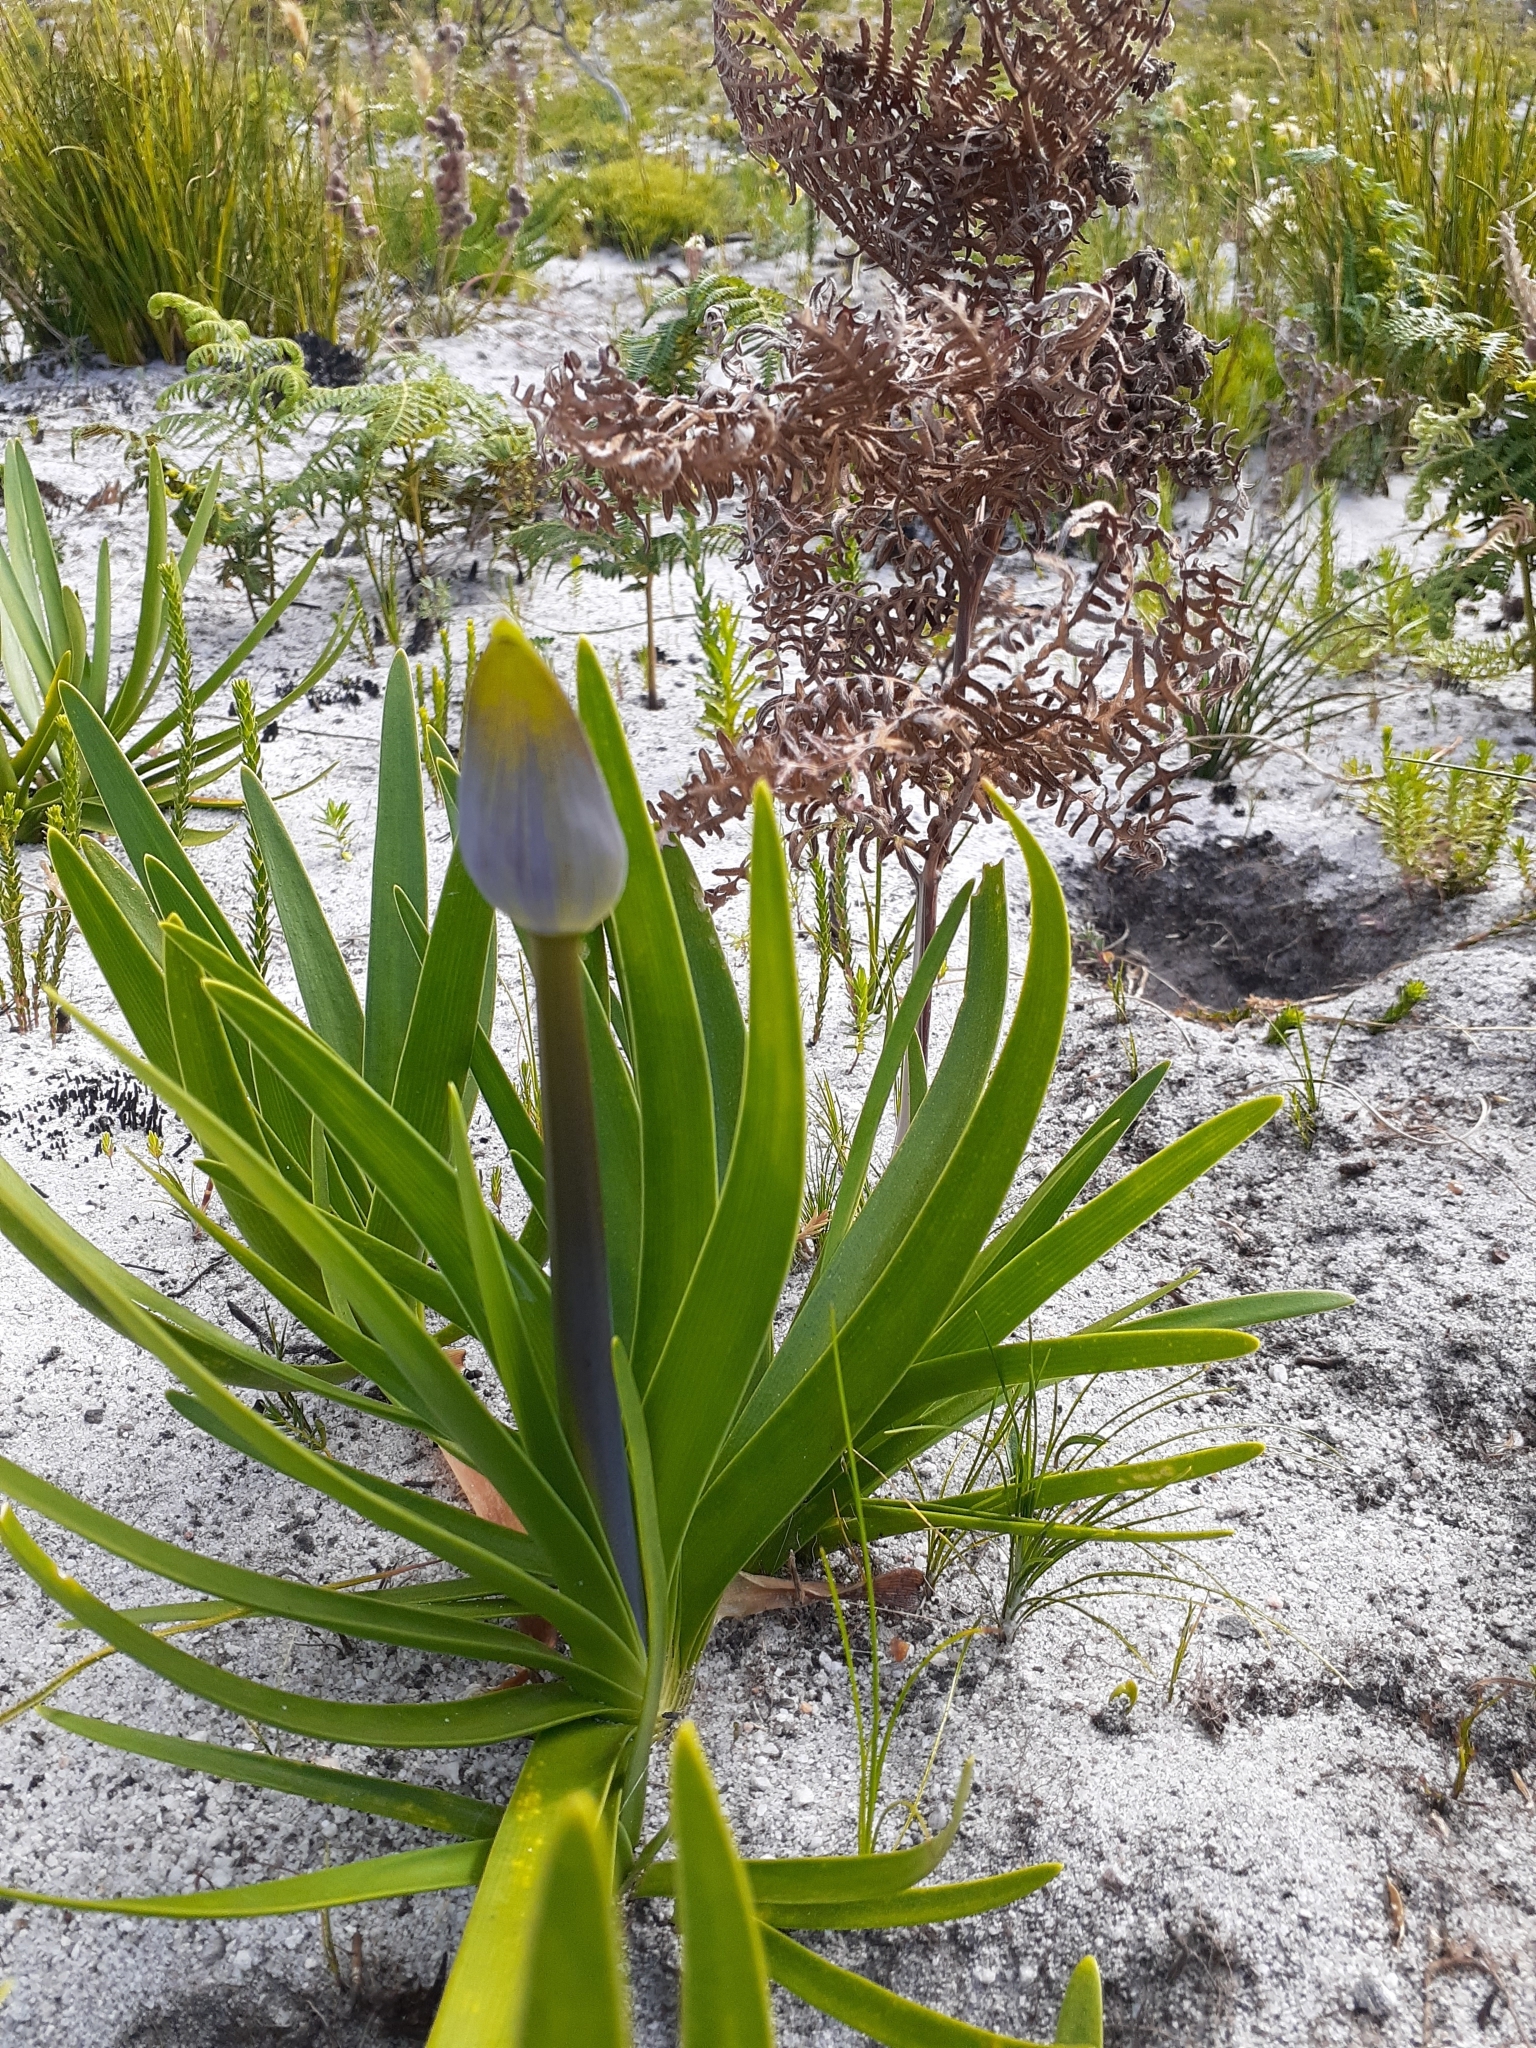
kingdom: Plantae
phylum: Tracheophyta
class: Liliopsida
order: Asparagales
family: Amaryllidaceae
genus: Agapanthus
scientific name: Agapanthus africanus
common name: Lily-of-the-nile
